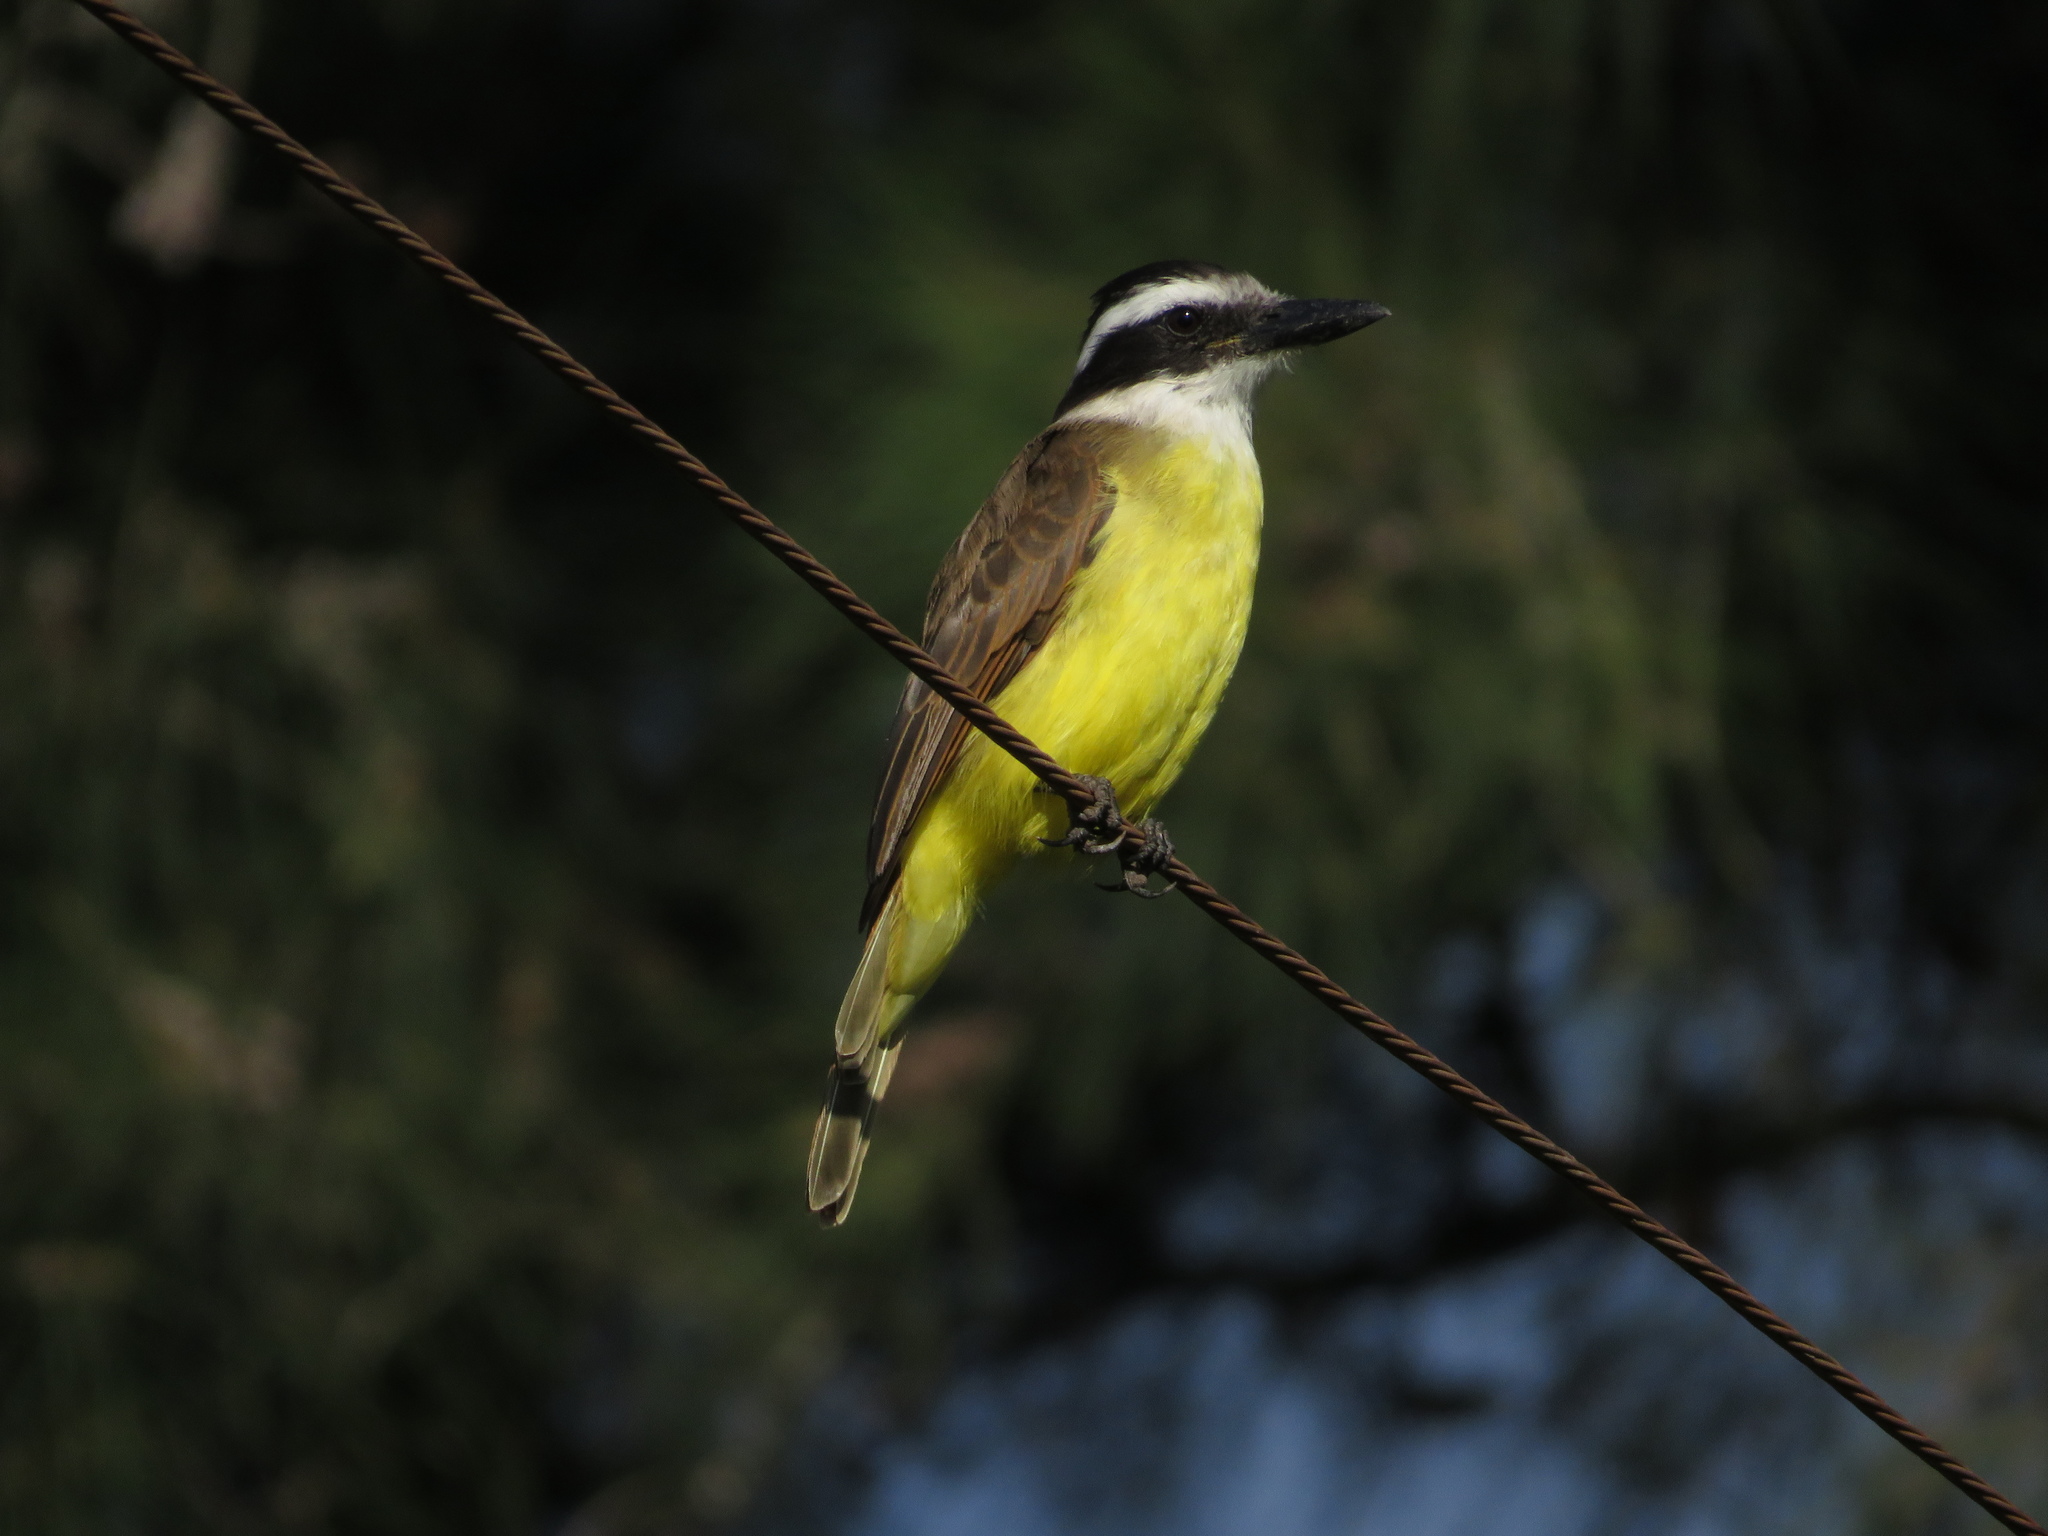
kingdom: Animalia
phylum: Chordata
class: Aves
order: Passeriformes
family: Tyrannidae
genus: Pitangus
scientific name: Pitangus sulphuratus
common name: Great kiskadee
